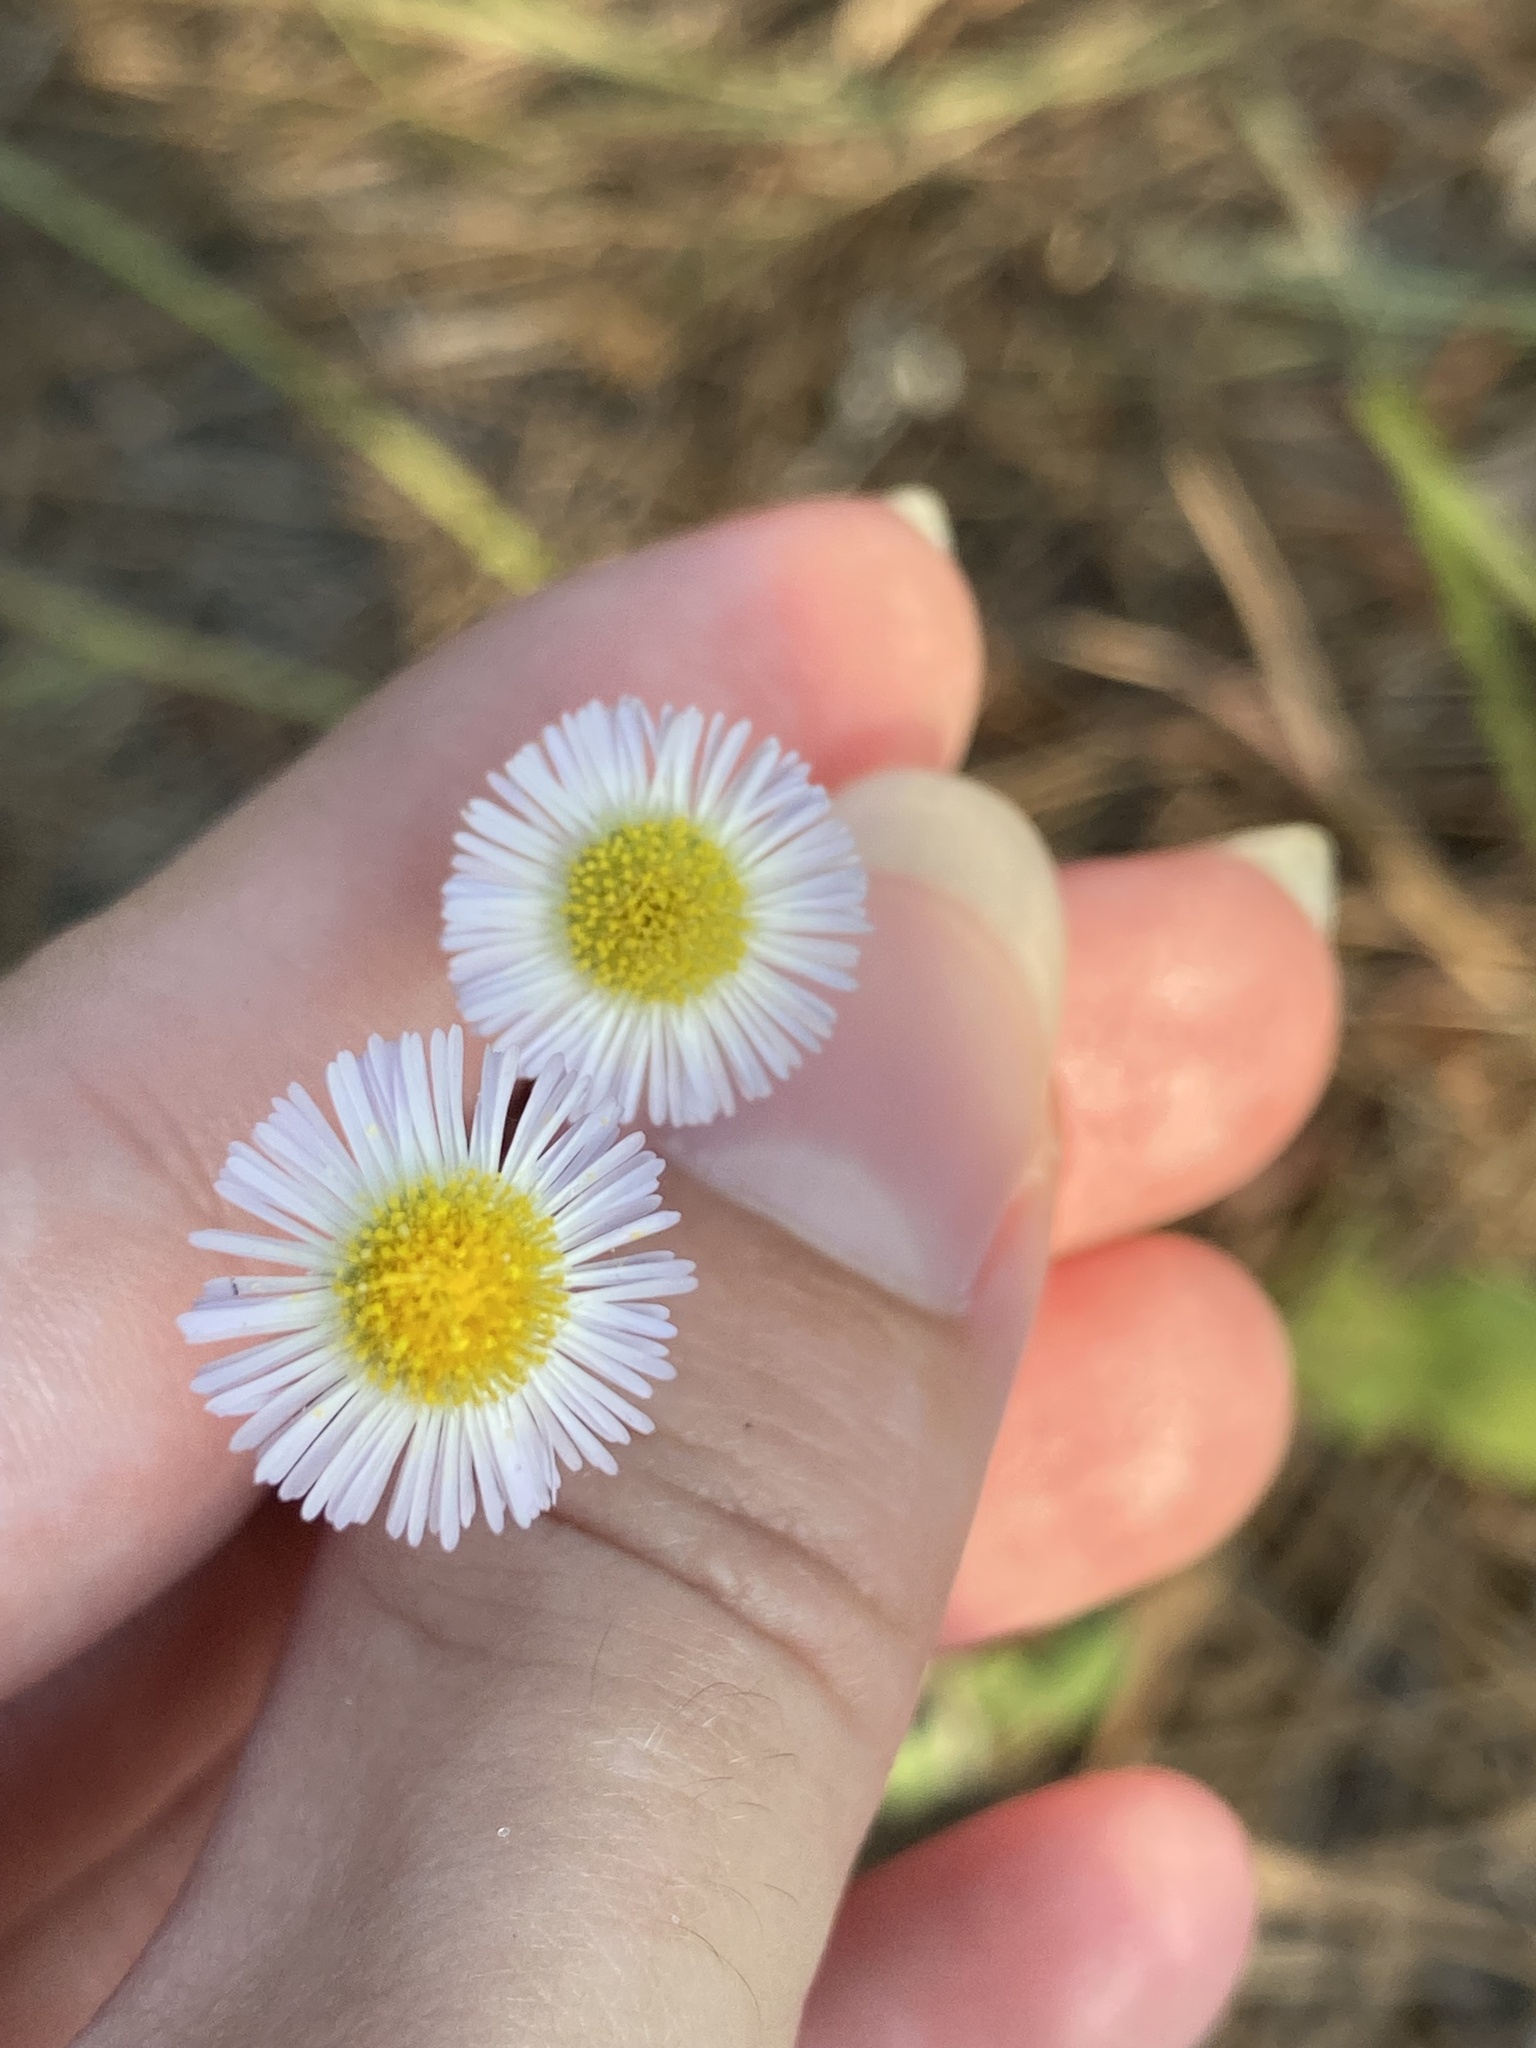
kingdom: Plantae
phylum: Tracheophyta
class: Magnoliopsida
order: Asterales
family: Asteraceae
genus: Erigeron
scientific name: Erigeron quercifolius
